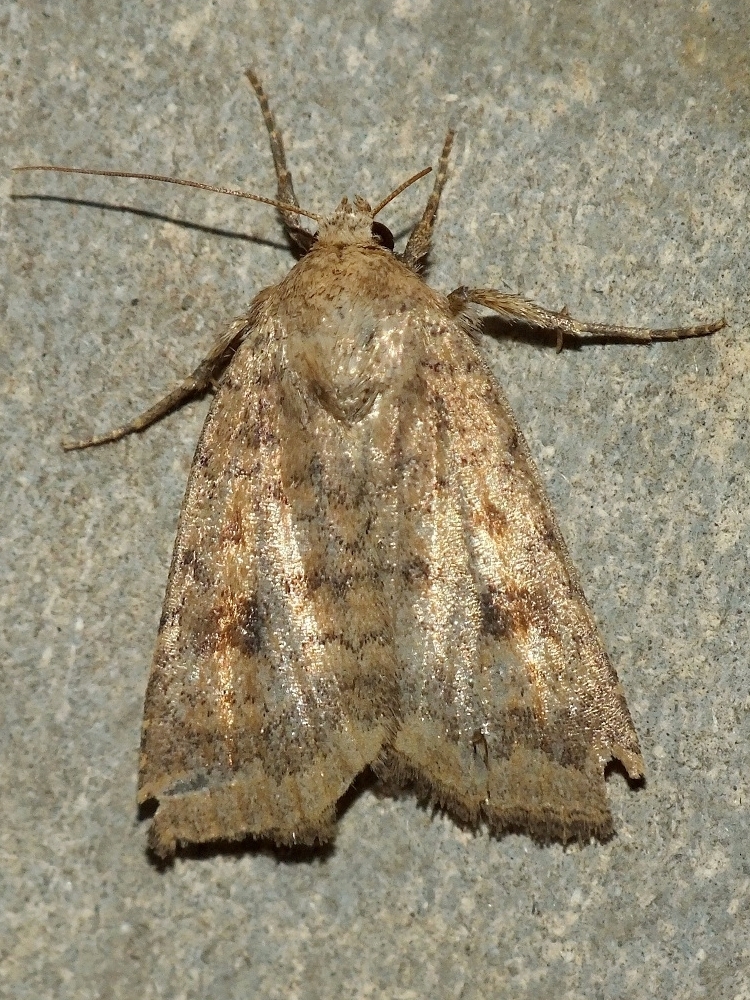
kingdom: Animalia
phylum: Arthropoda
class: Insecta
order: Lepidoptera
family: Noctuidae
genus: Caradrina
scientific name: Caradrina morpheus
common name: Mottled rustic
